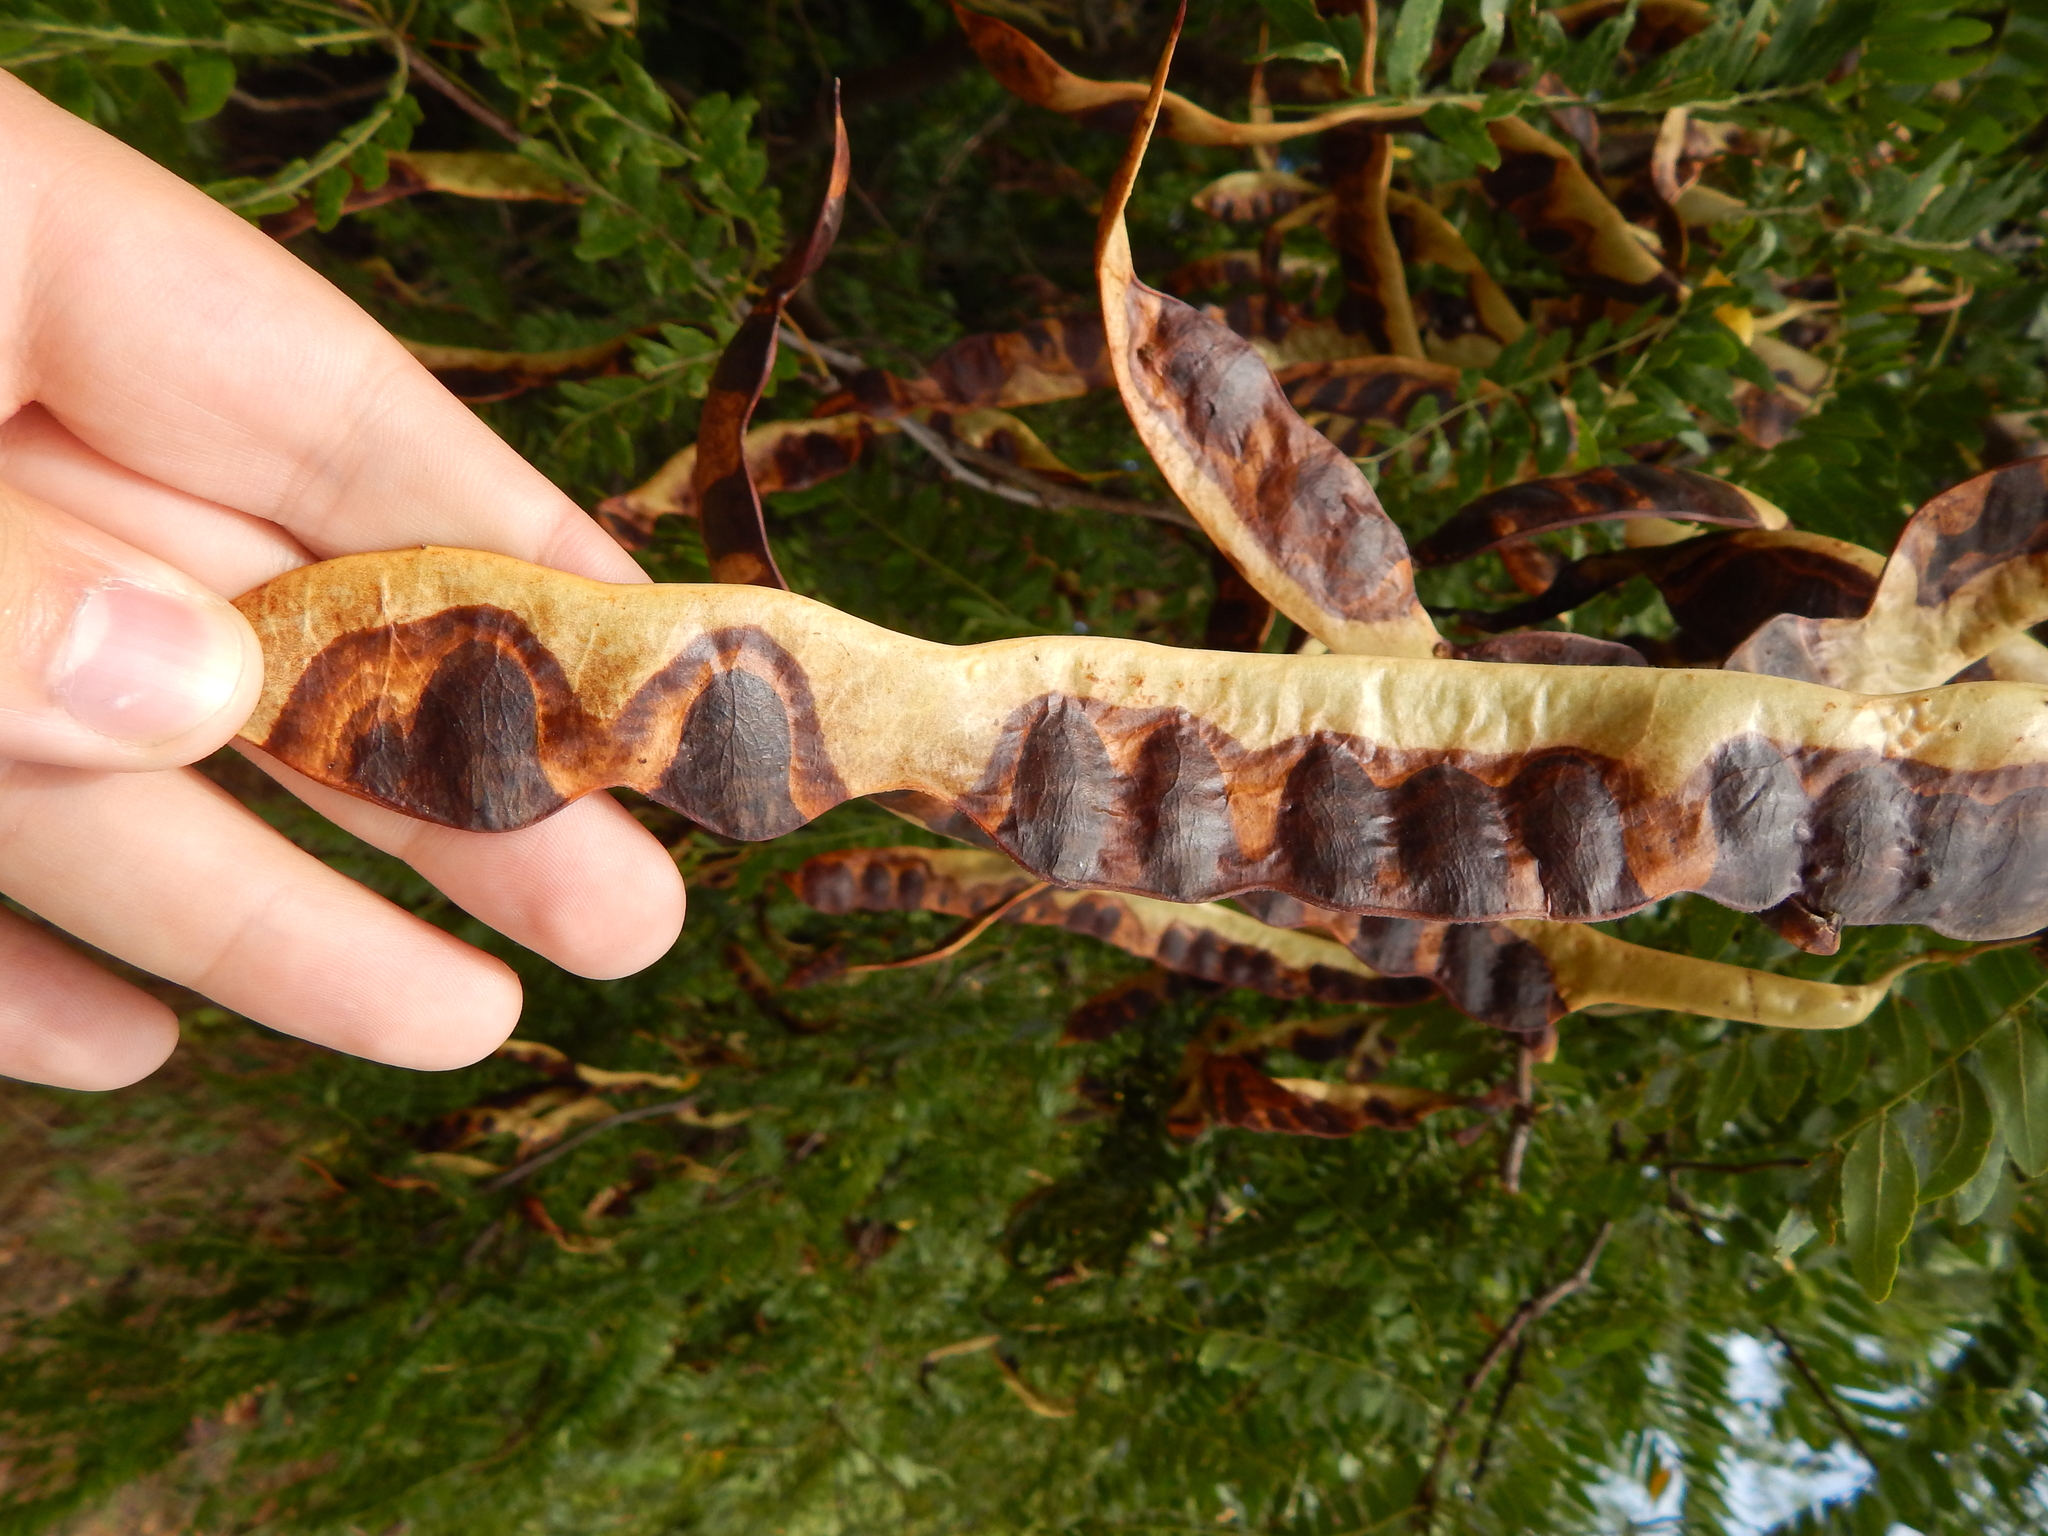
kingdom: Plantae
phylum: Tracheophyta
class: Magnoliopsida
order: Fabales
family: Fabaceae
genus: Gleditsia
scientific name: Gleditsia triacanthos
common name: Common honeylocust
